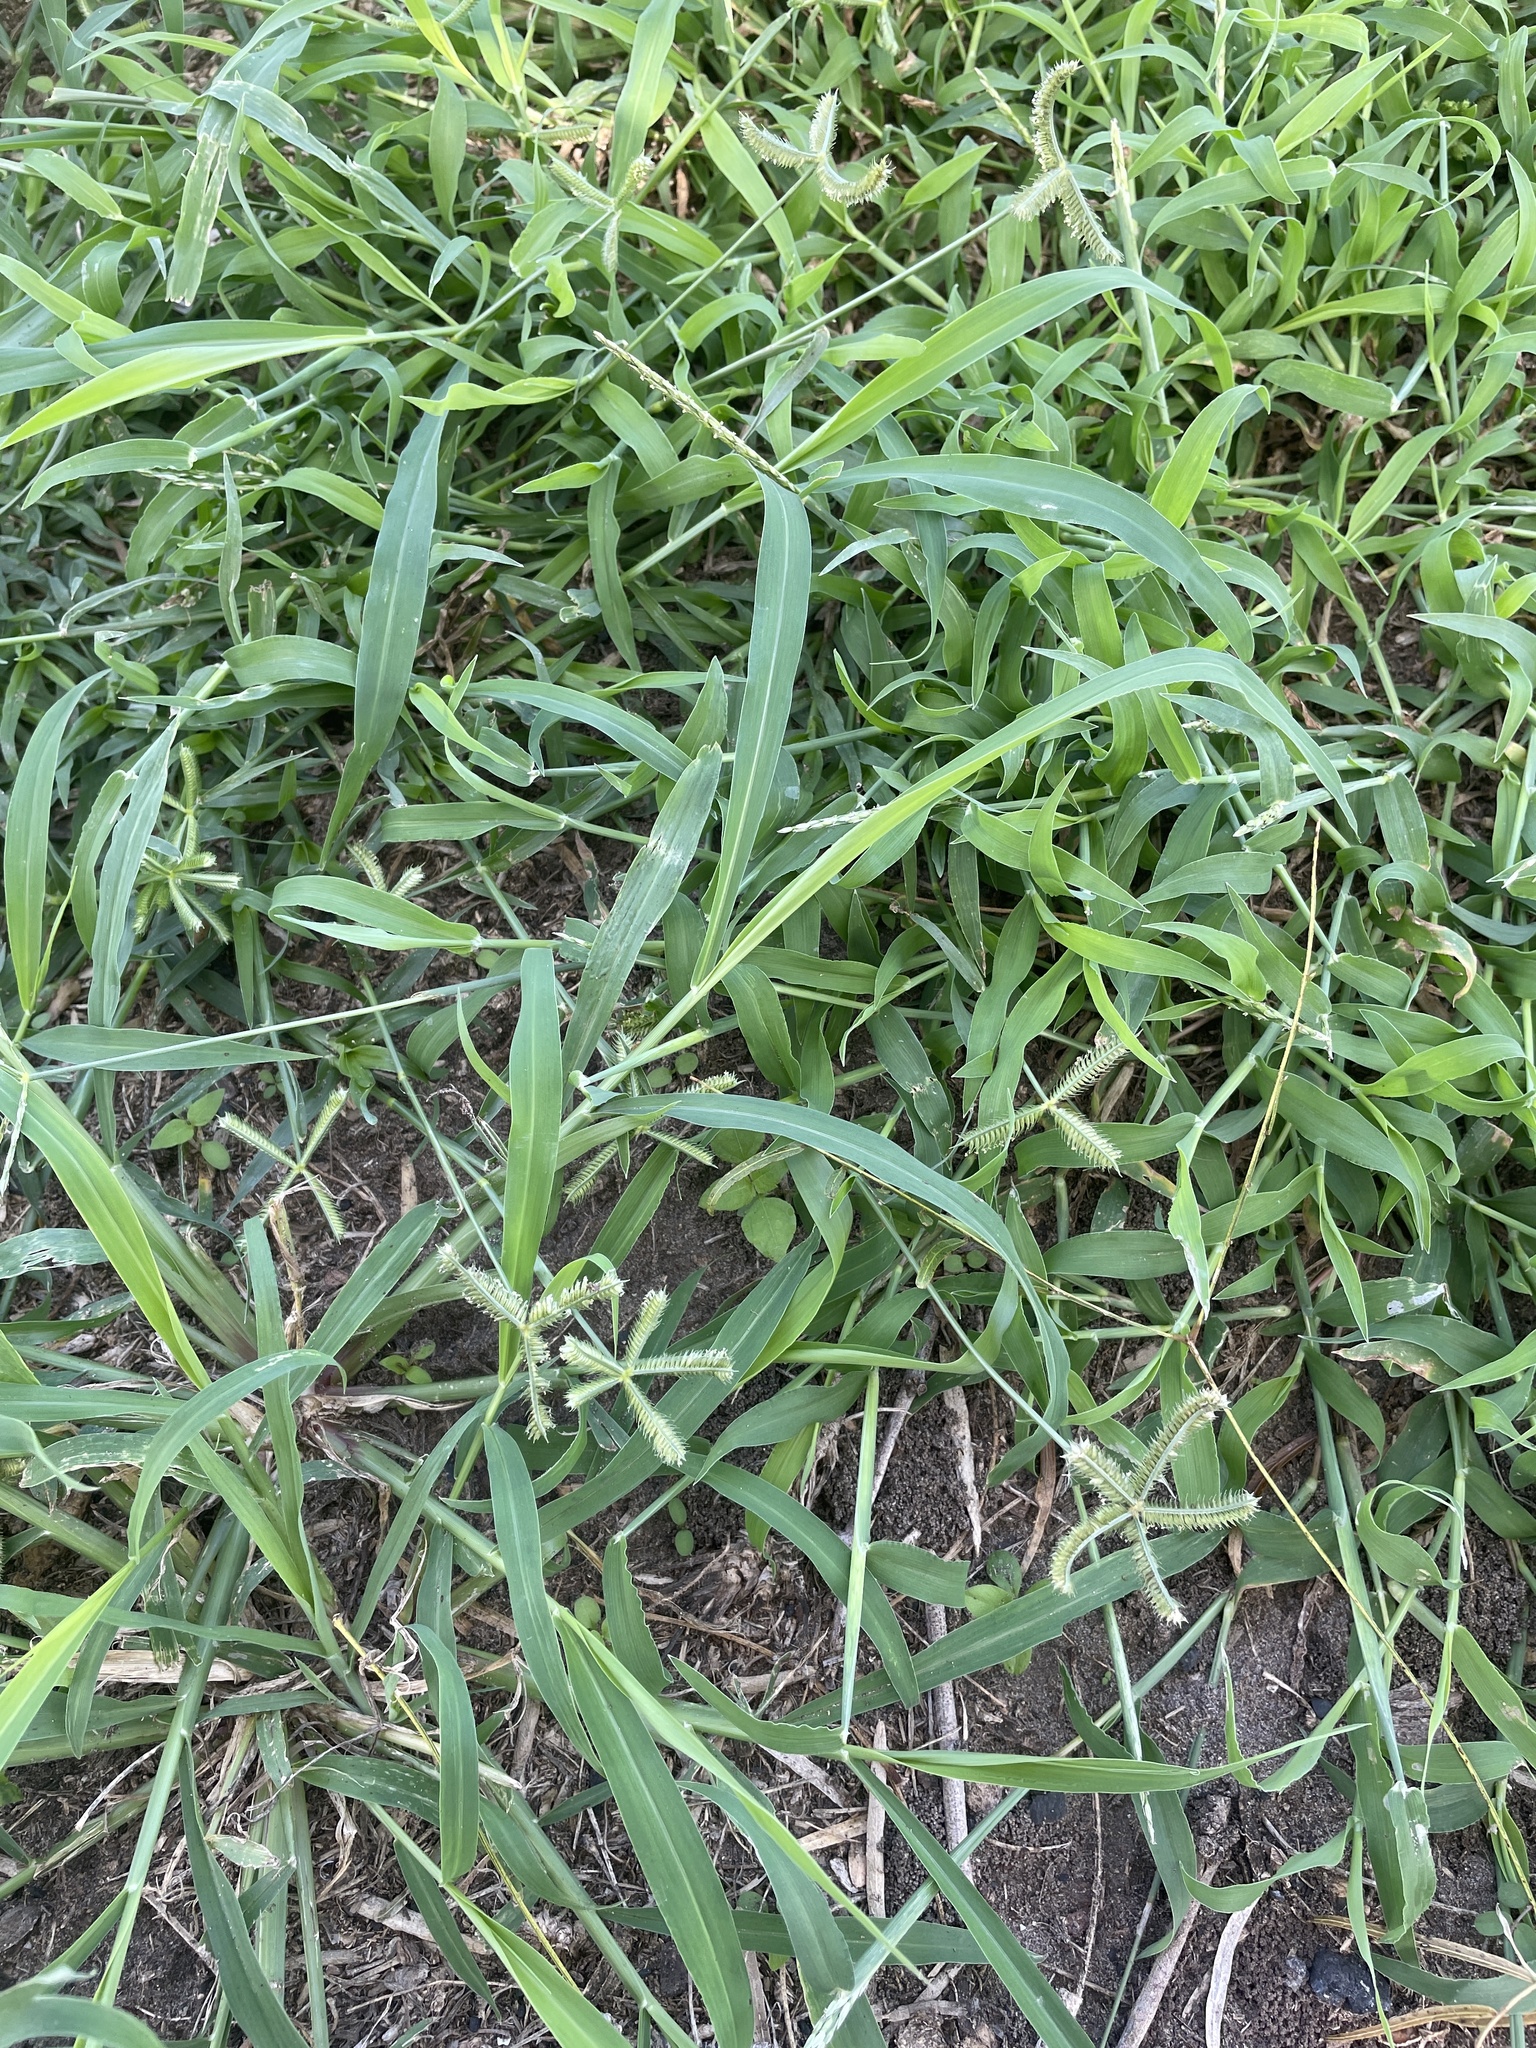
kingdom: Plantae
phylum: Tracheophyta
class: Liliopsida
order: Poales
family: Poaceae
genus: Dactyloctenium
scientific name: Dactyloctenium aegyptium
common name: Egyptian grass
